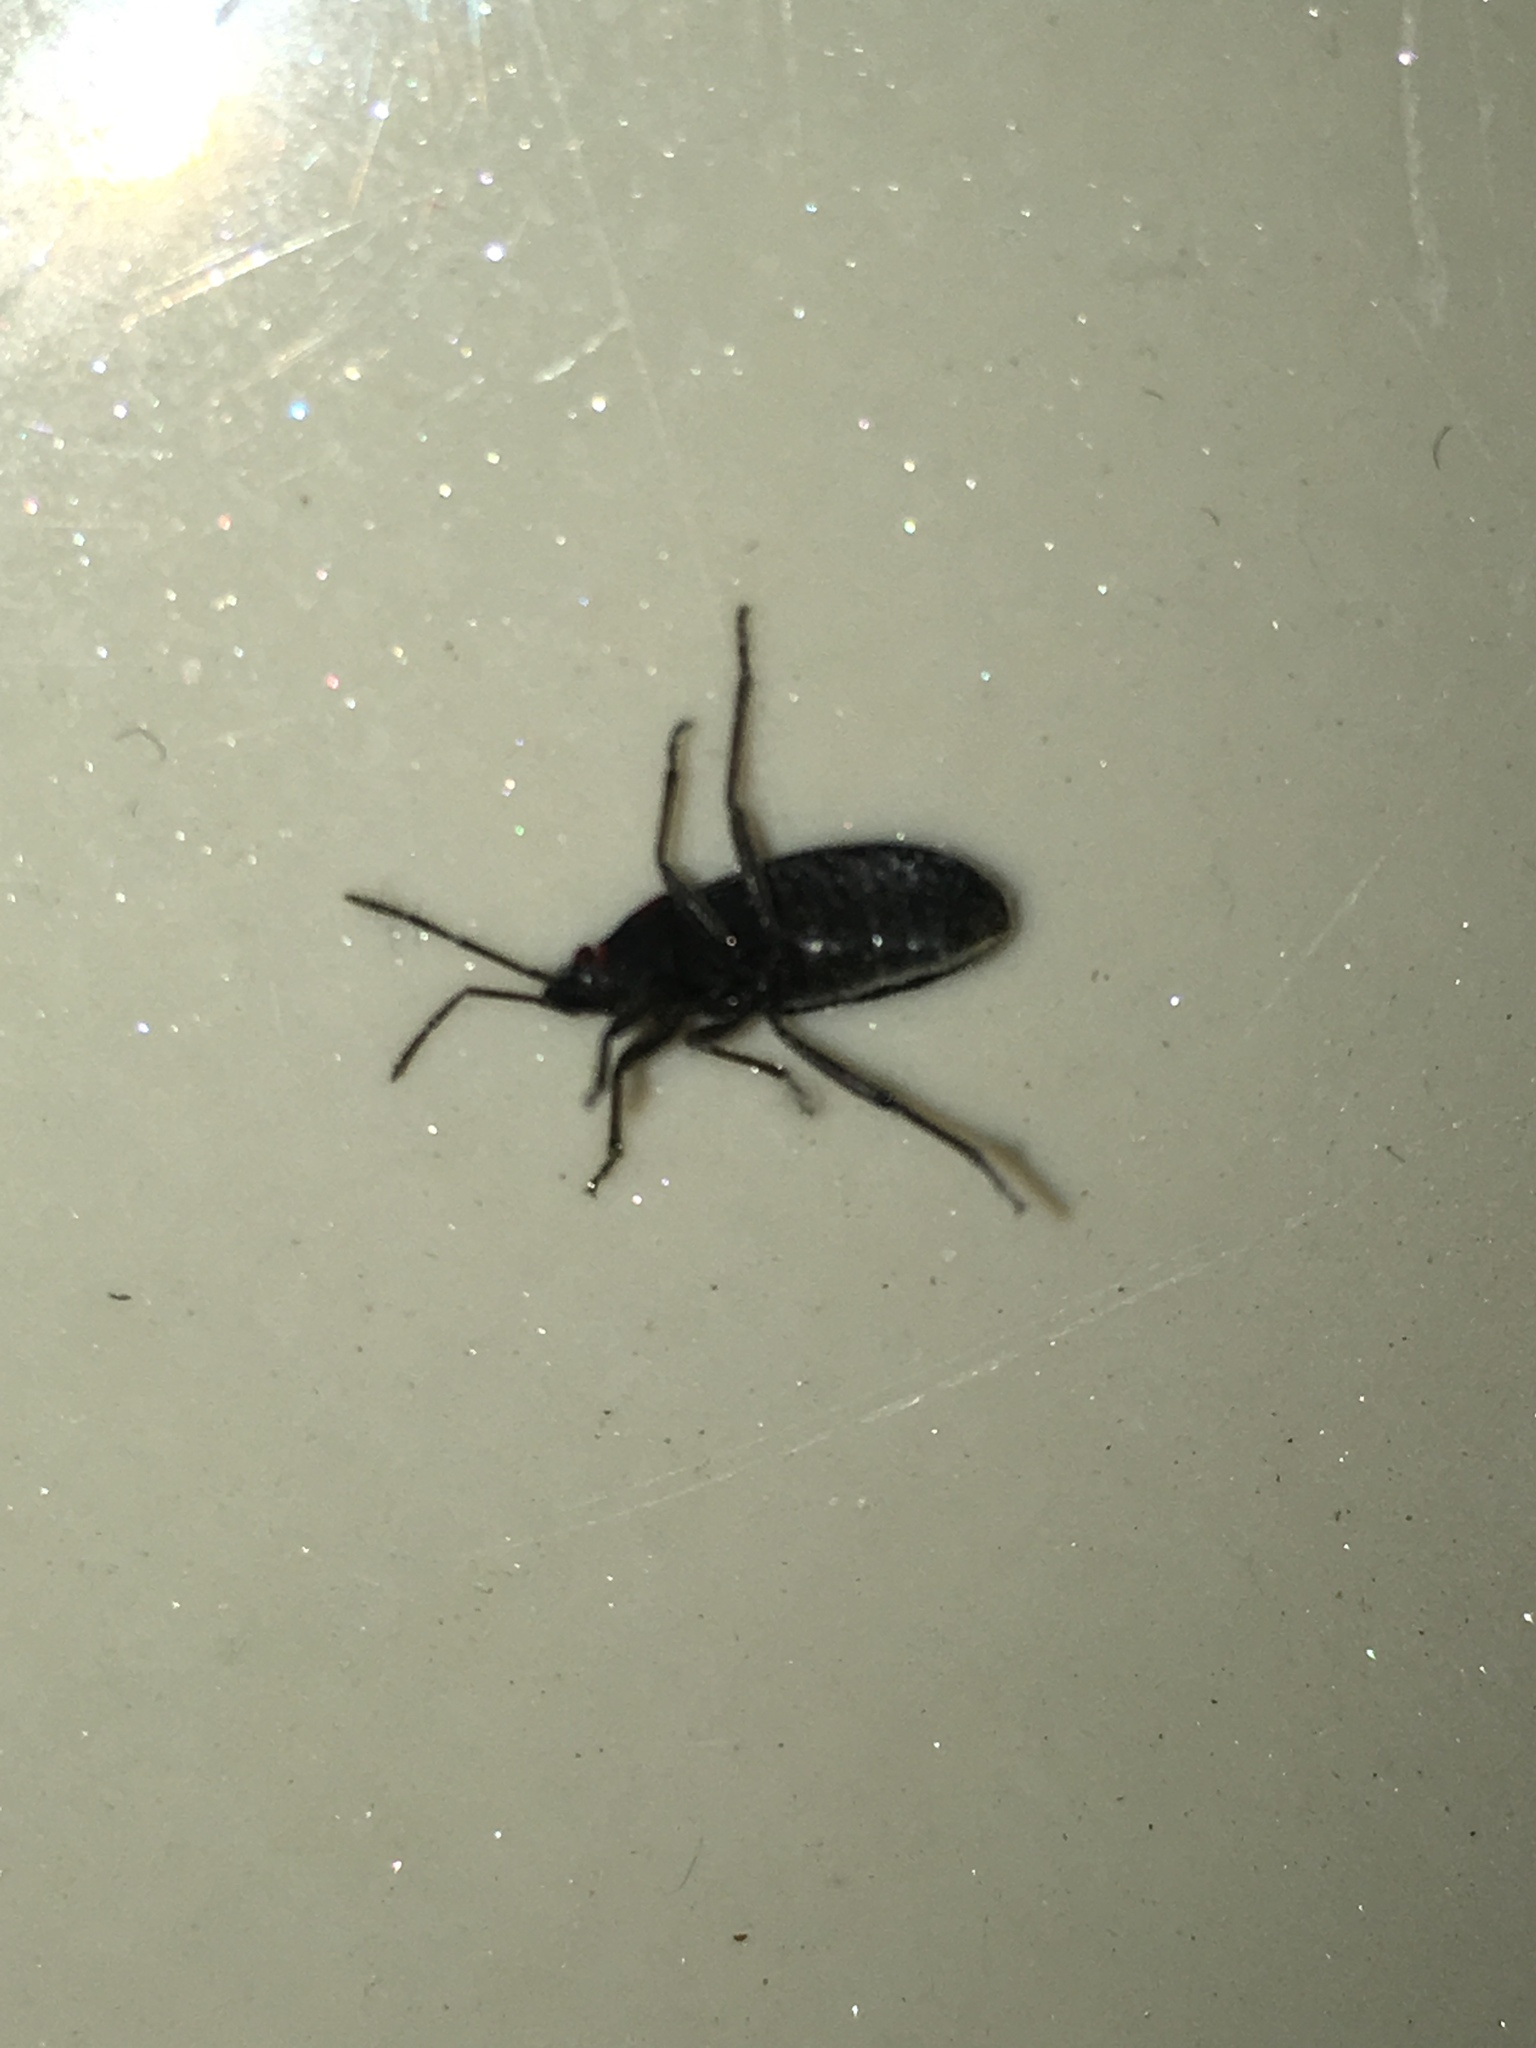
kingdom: Animalia
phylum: Arthropoda
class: Insecta
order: Hemiptera
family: Lygaeidae
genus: Melacoryphus
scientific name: Melacoryphus rubicollis
